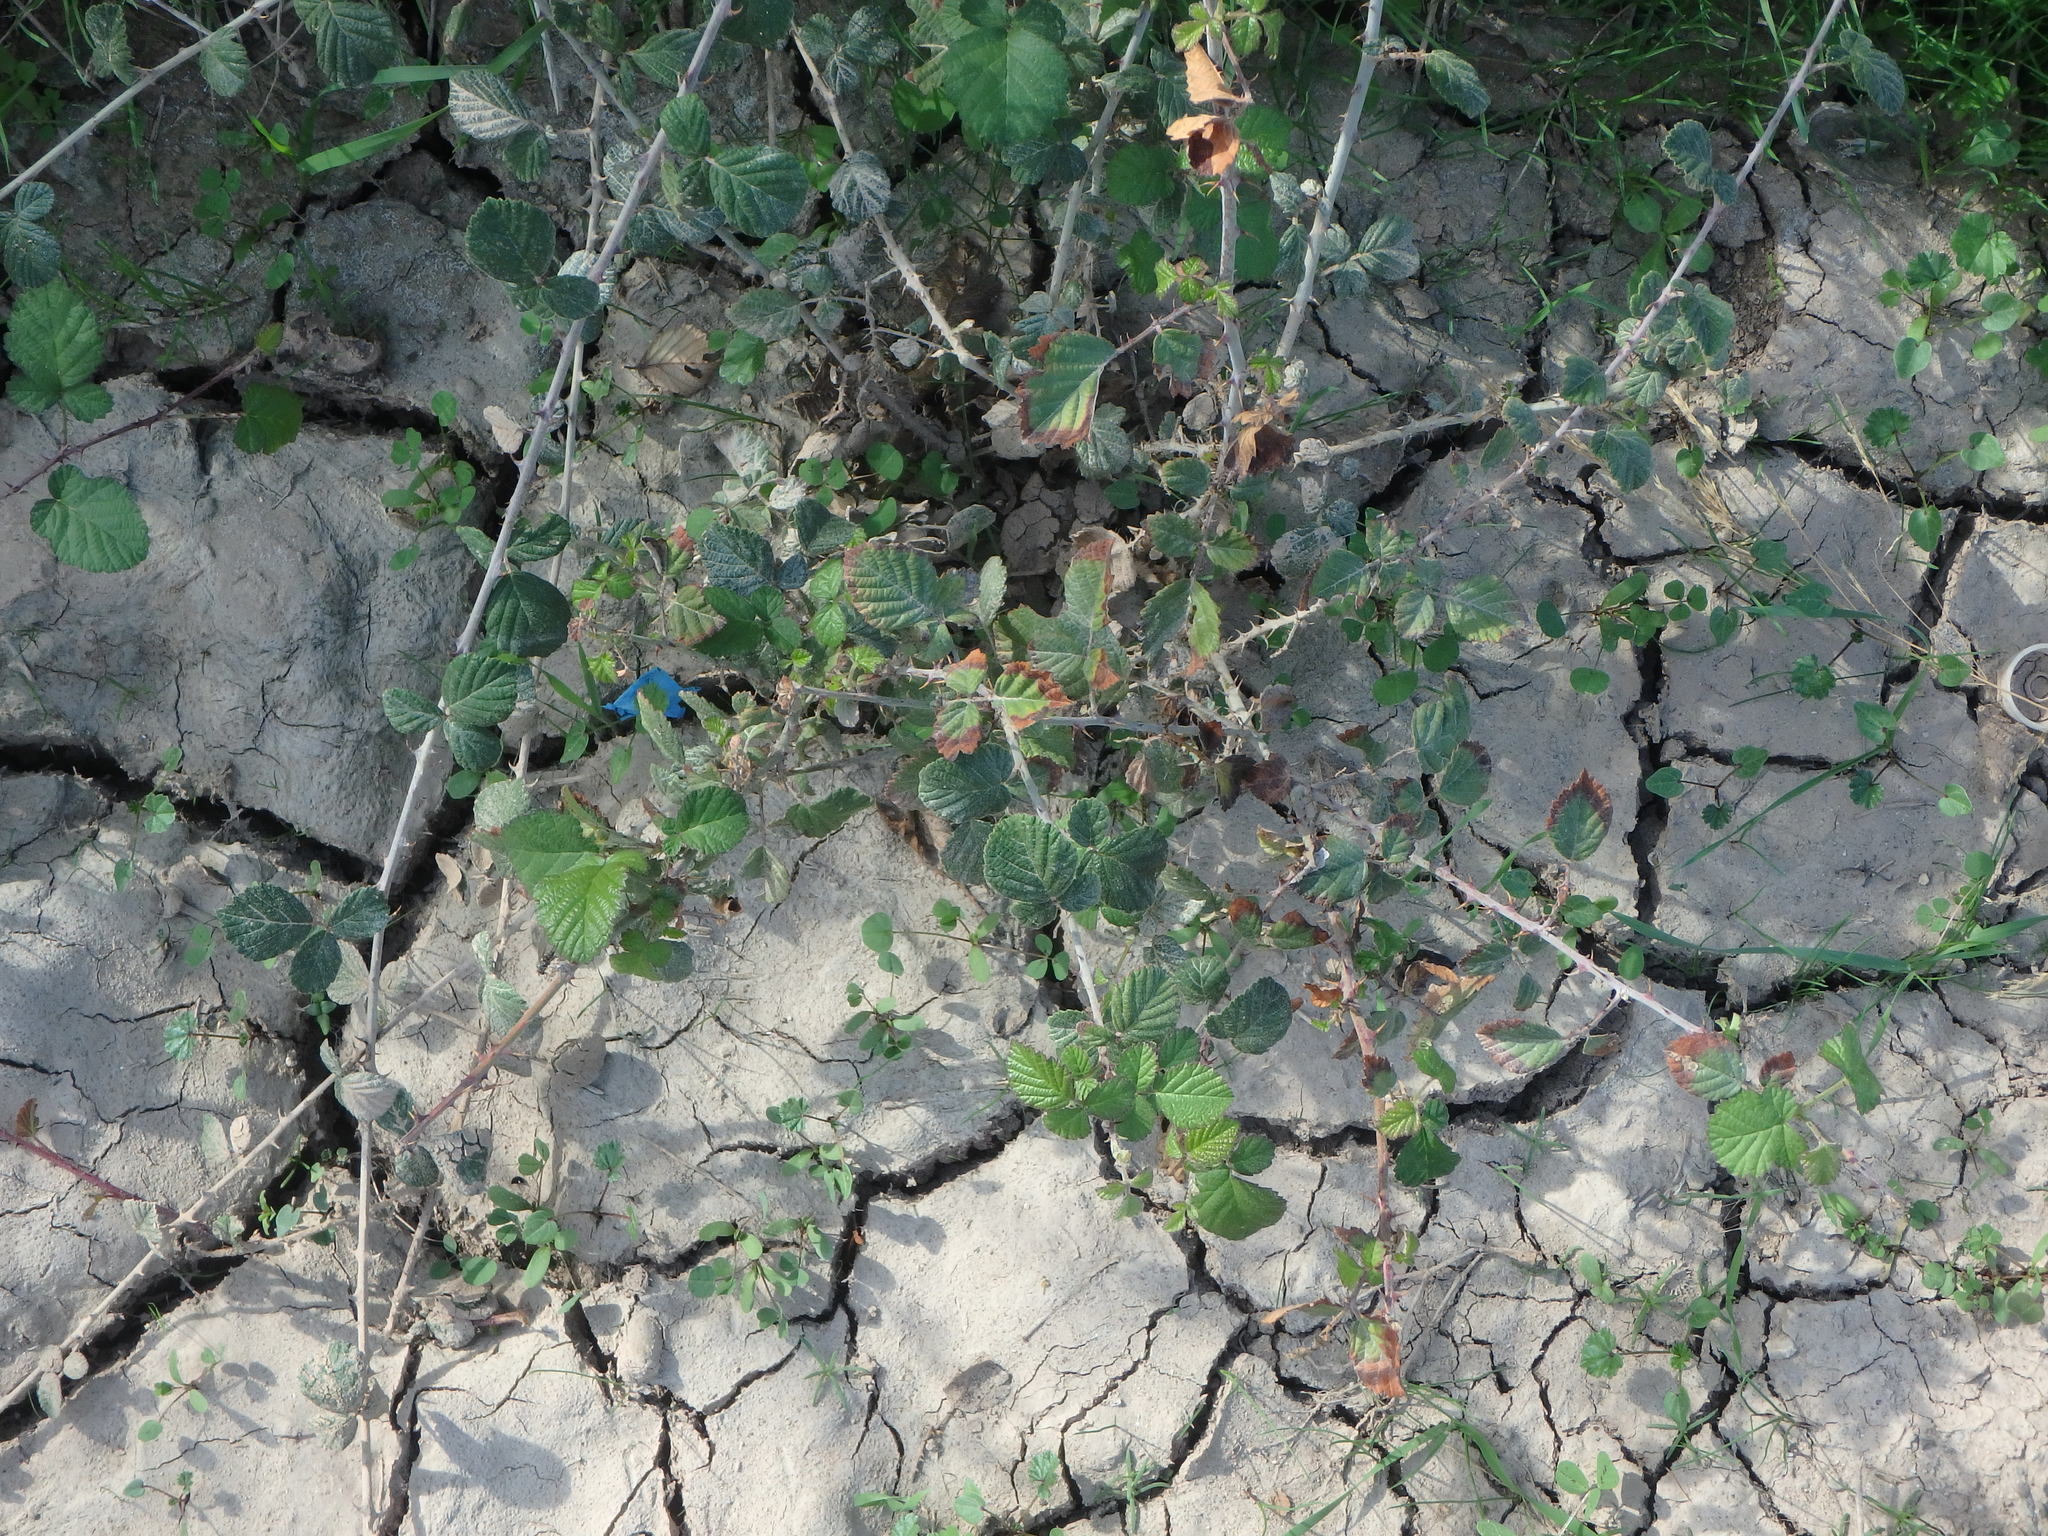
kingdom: Plantae
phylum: Tracheophyta
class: Magnoliopsida
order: Rosales
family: Rosaceae
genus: Rubus
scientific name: Rubus sanctus
